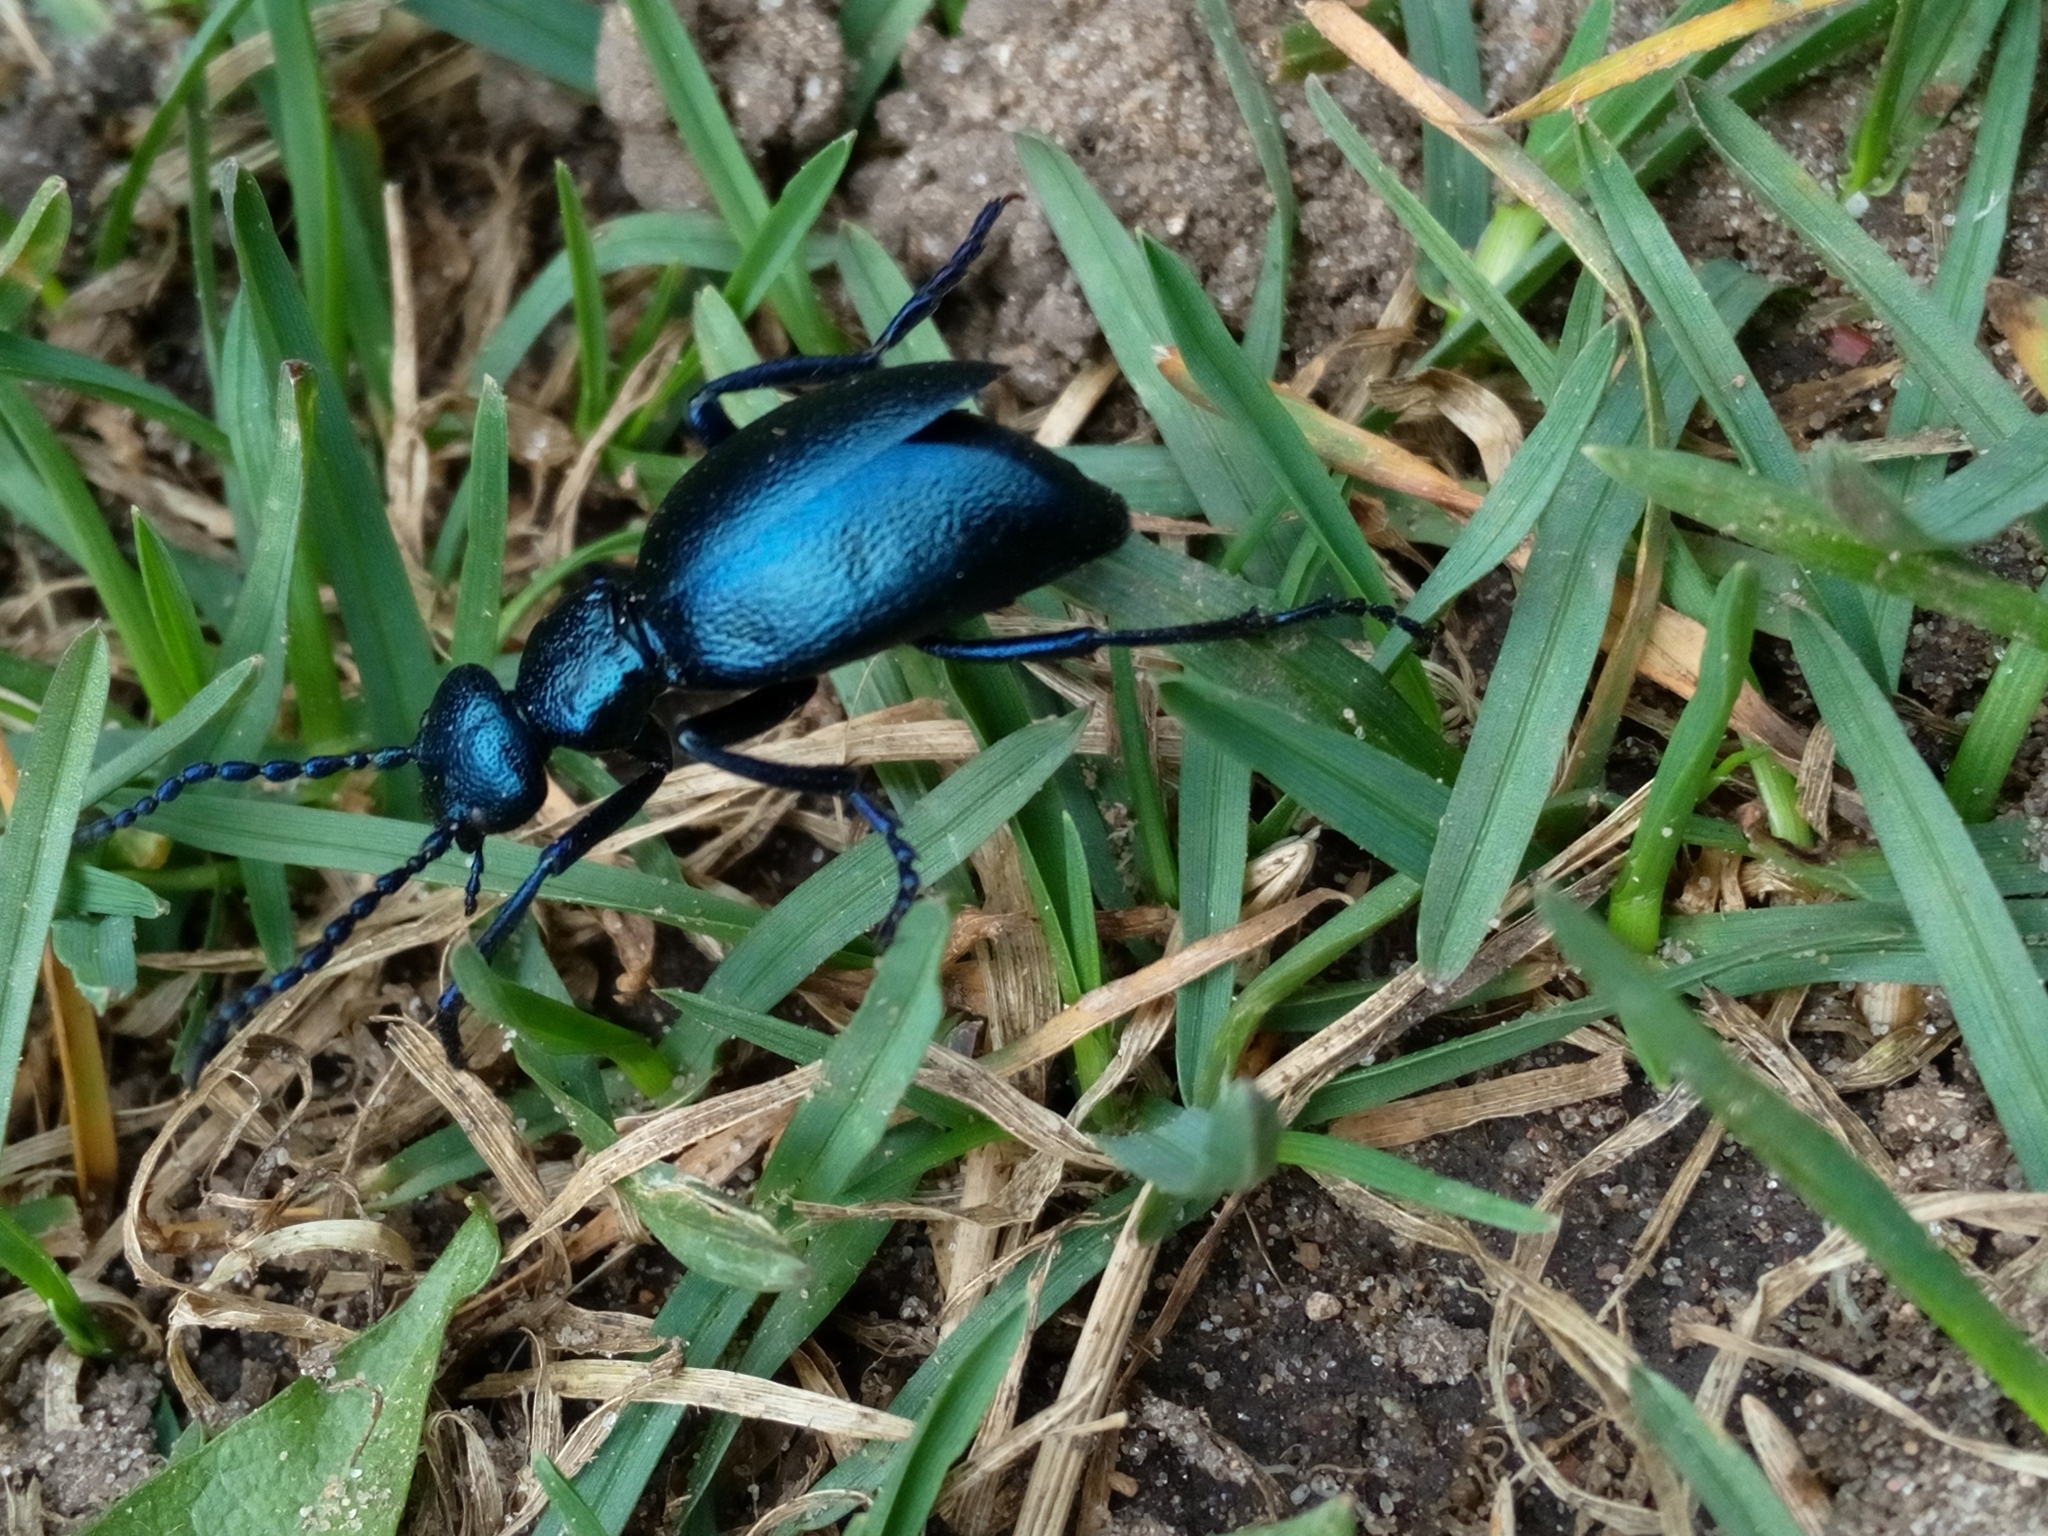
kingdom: Animalia
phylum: Arthropoda
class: Insecta
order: Coleoptera
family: Meloidae
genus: Meloe
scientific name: Meloe violaceus
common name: Violet oil-beetle
